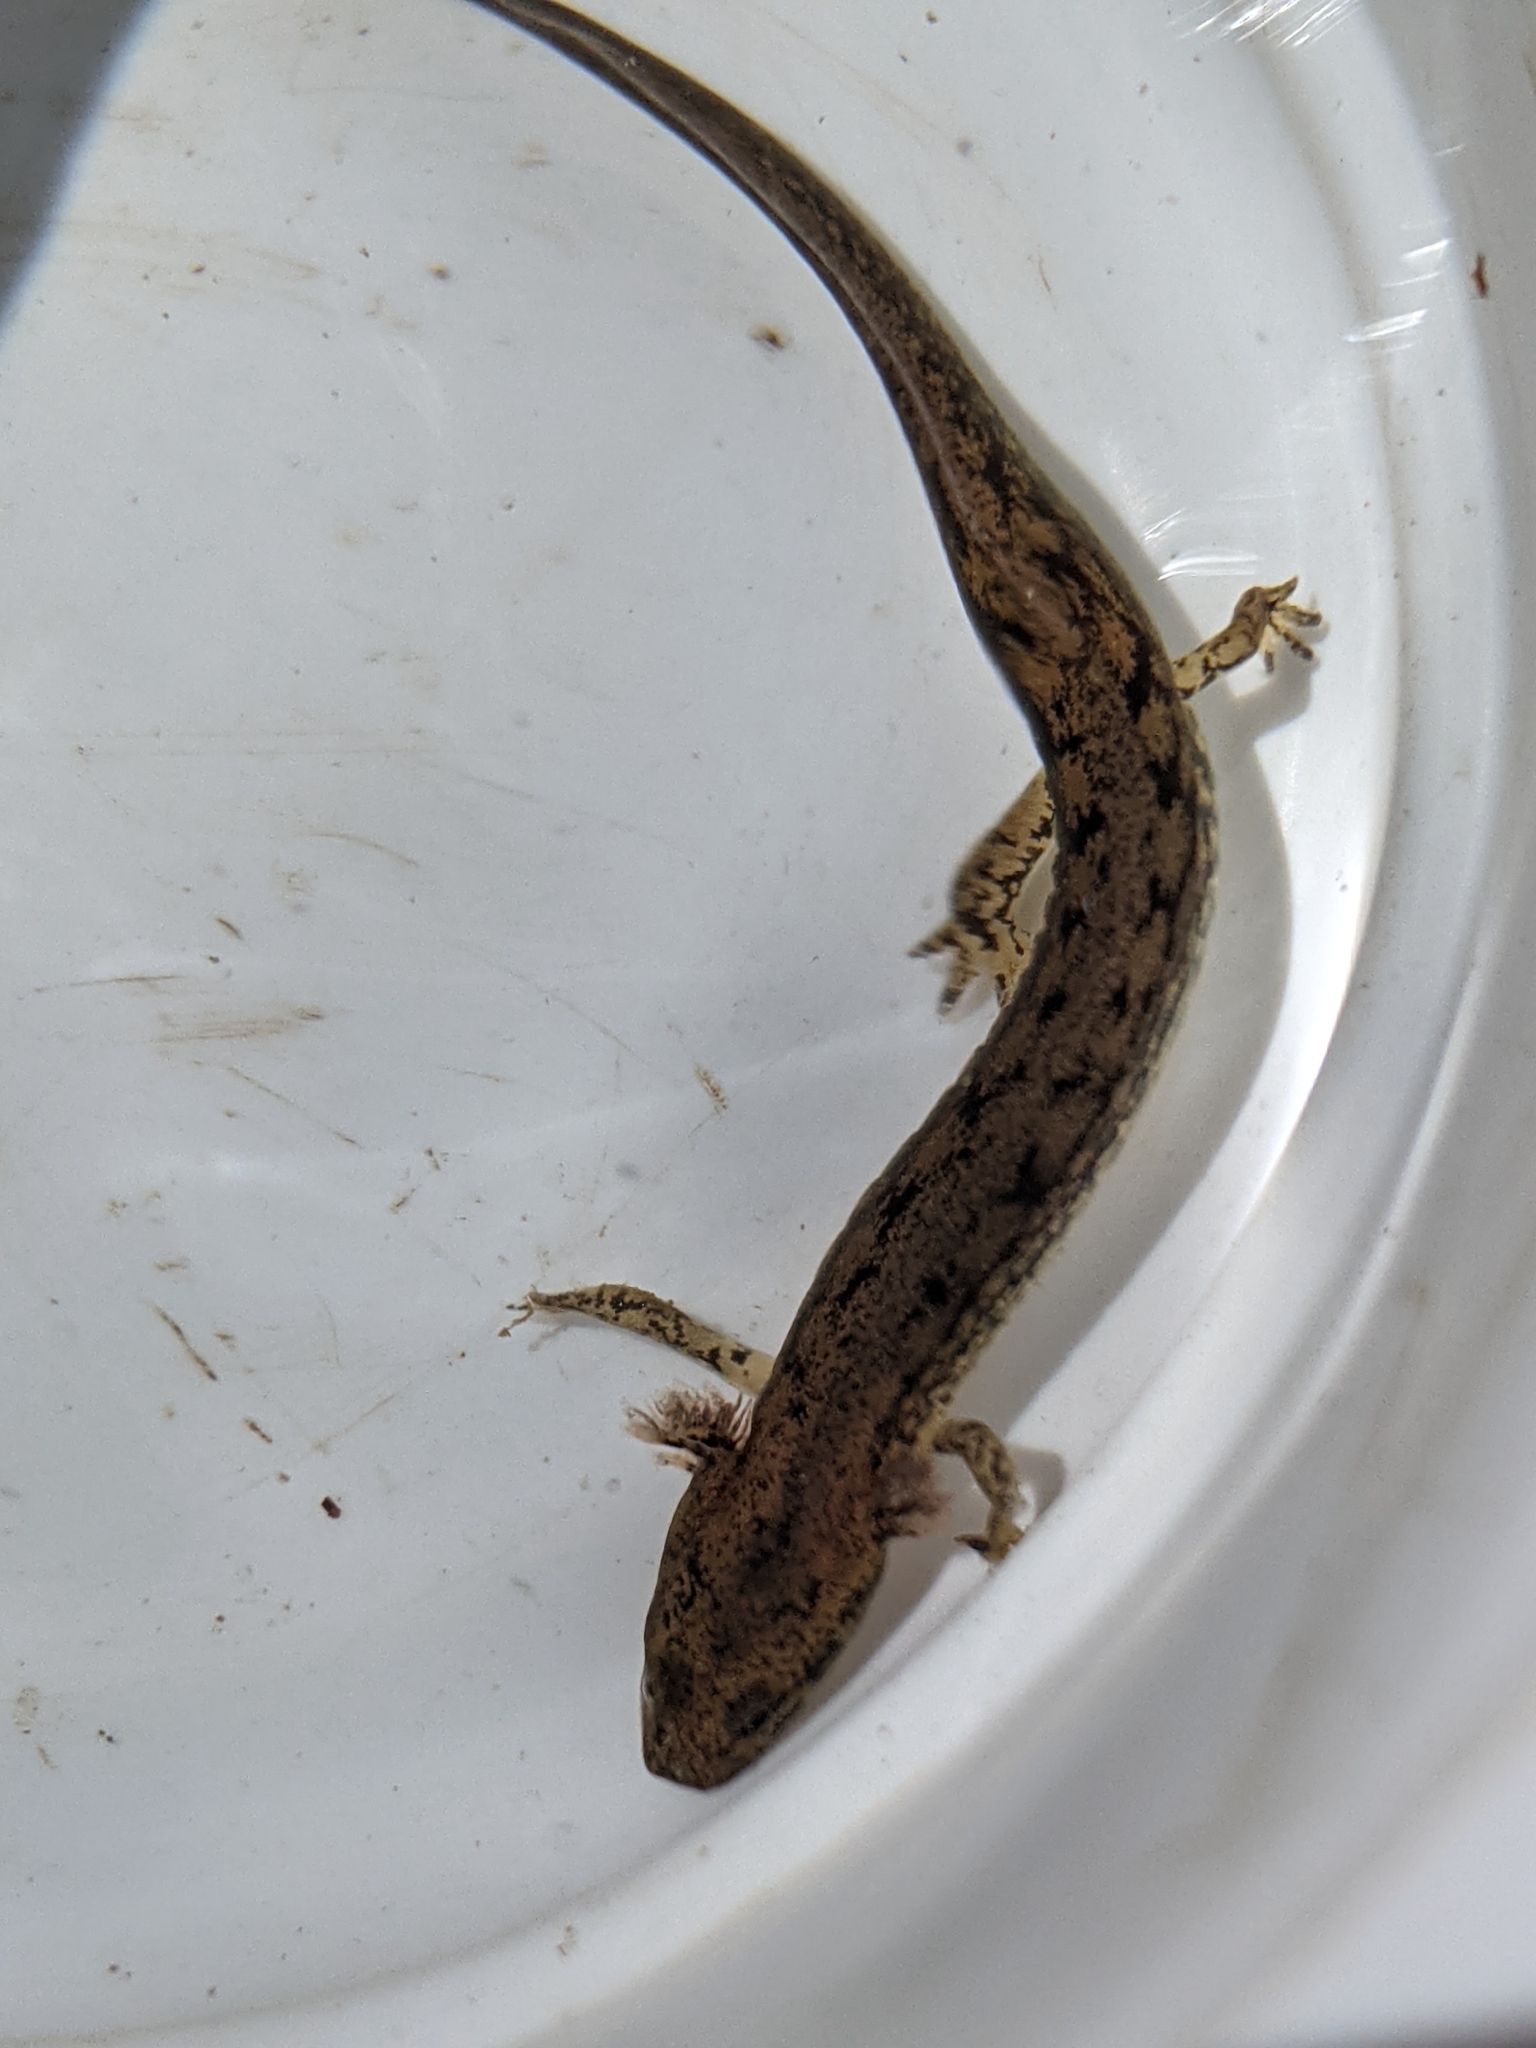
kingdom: Animalia
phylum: Chordata
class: Amphibia
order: Caudata
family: Plethodontidae
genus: Eurycea
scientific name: Eurycea bislineata
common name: Northern two-lined salamander
